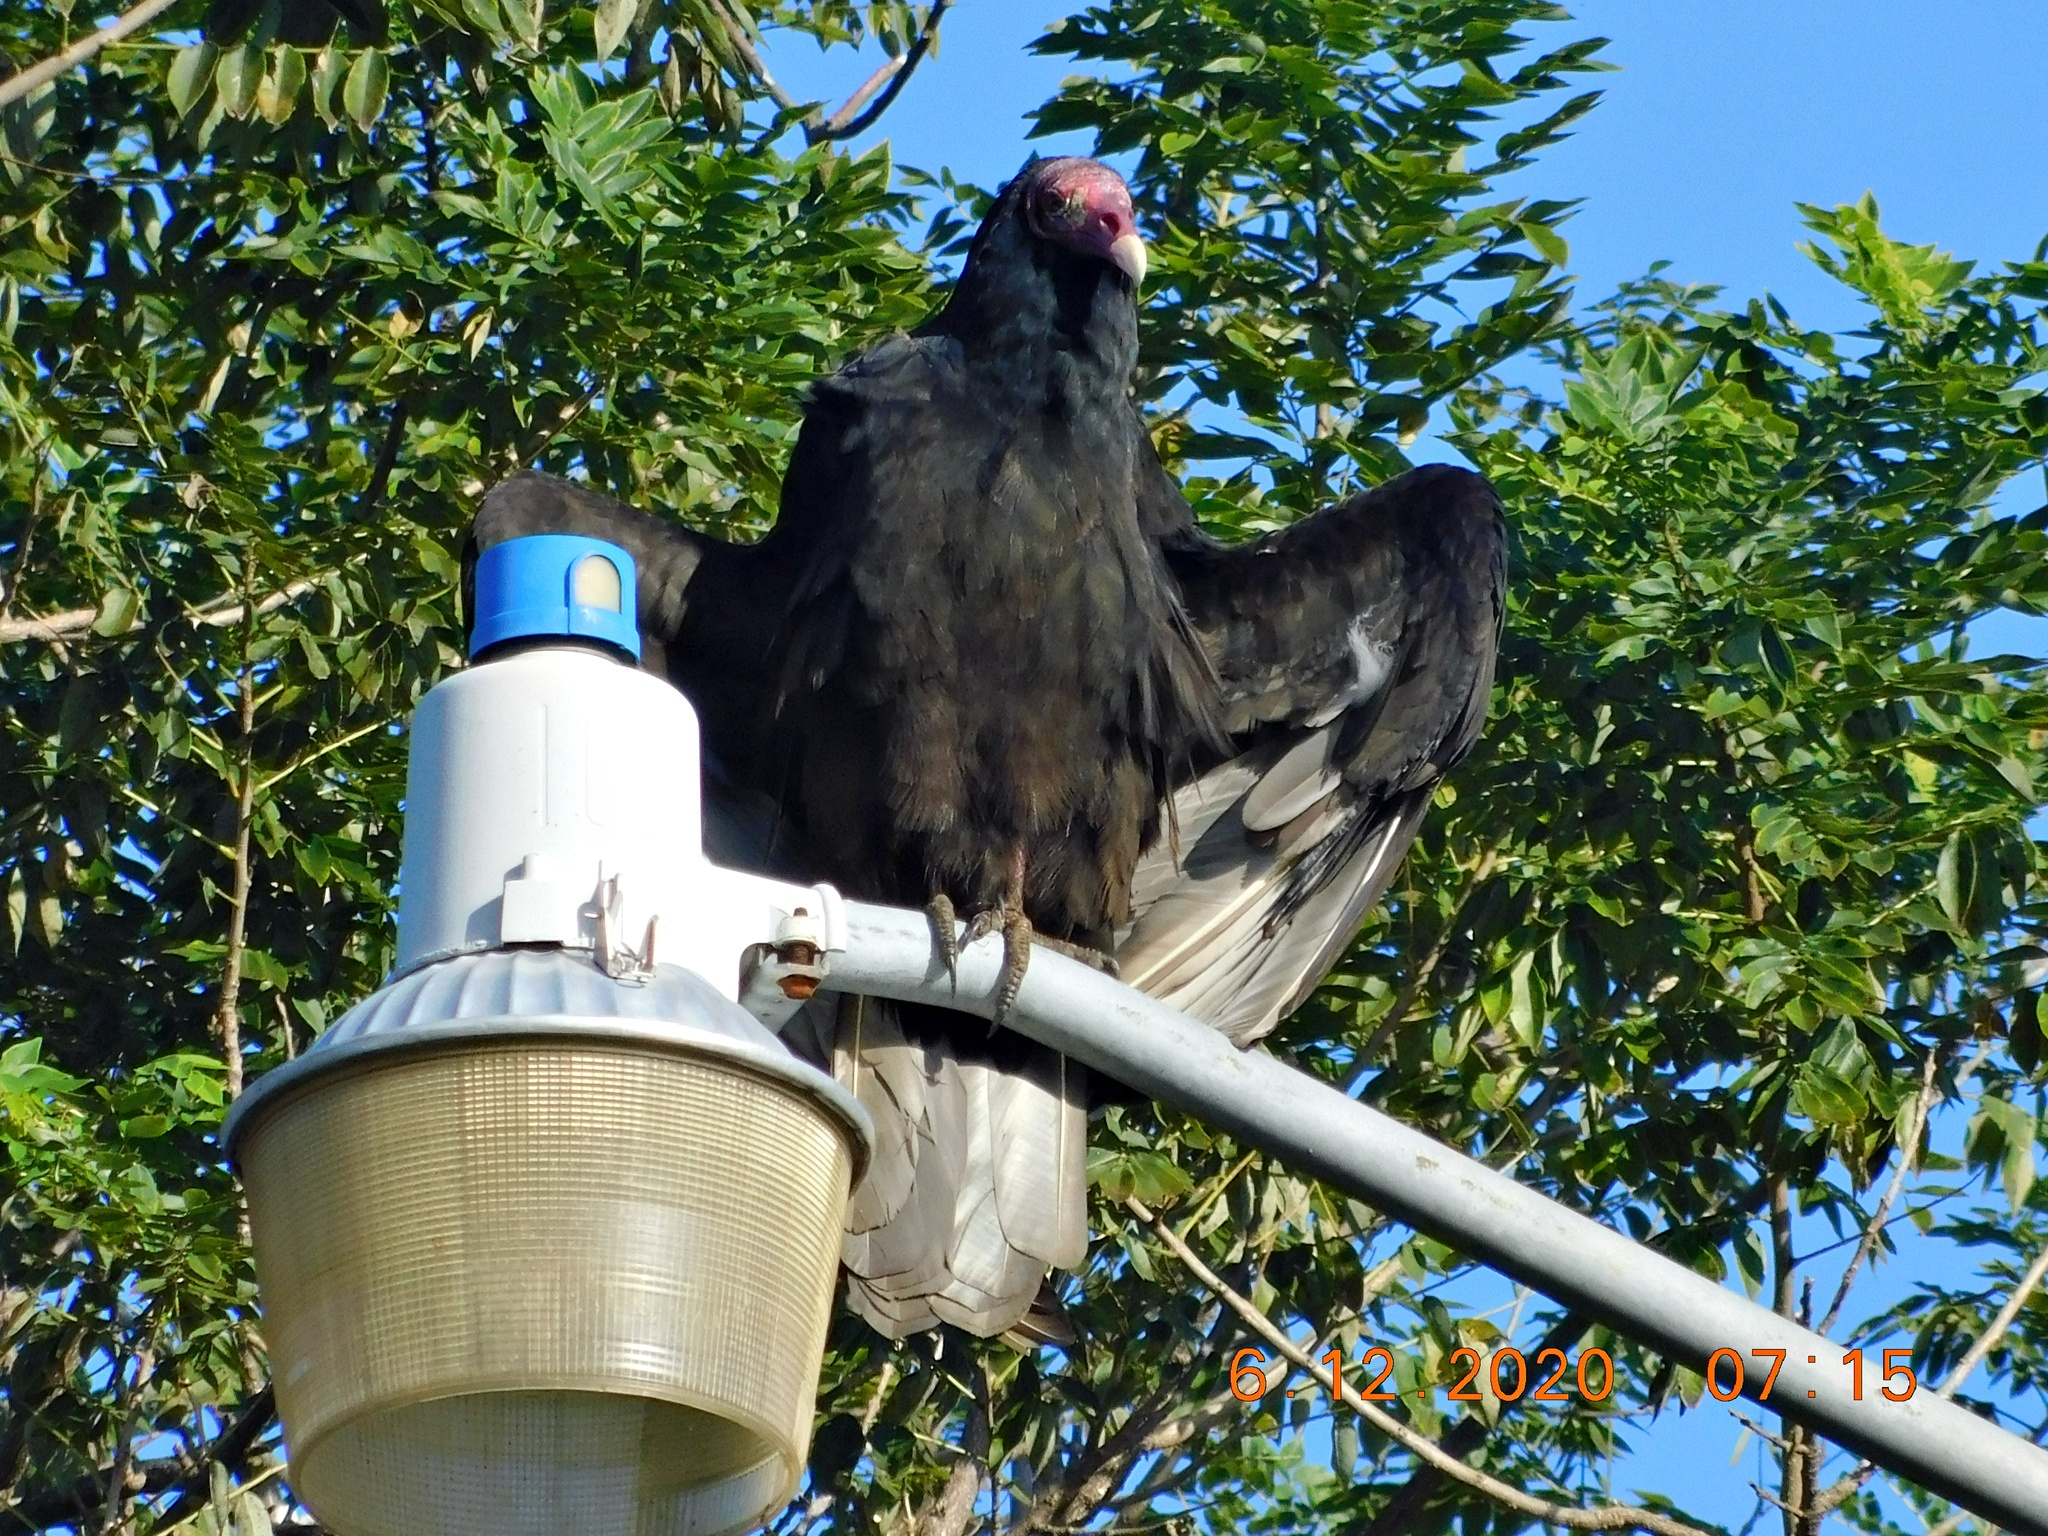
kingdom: Animalia
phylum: Chordata
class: Aves
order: Accipitriformes
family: Cathartidae
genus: Cathartes
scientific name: Cathartes aura
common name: Turkey vulture
